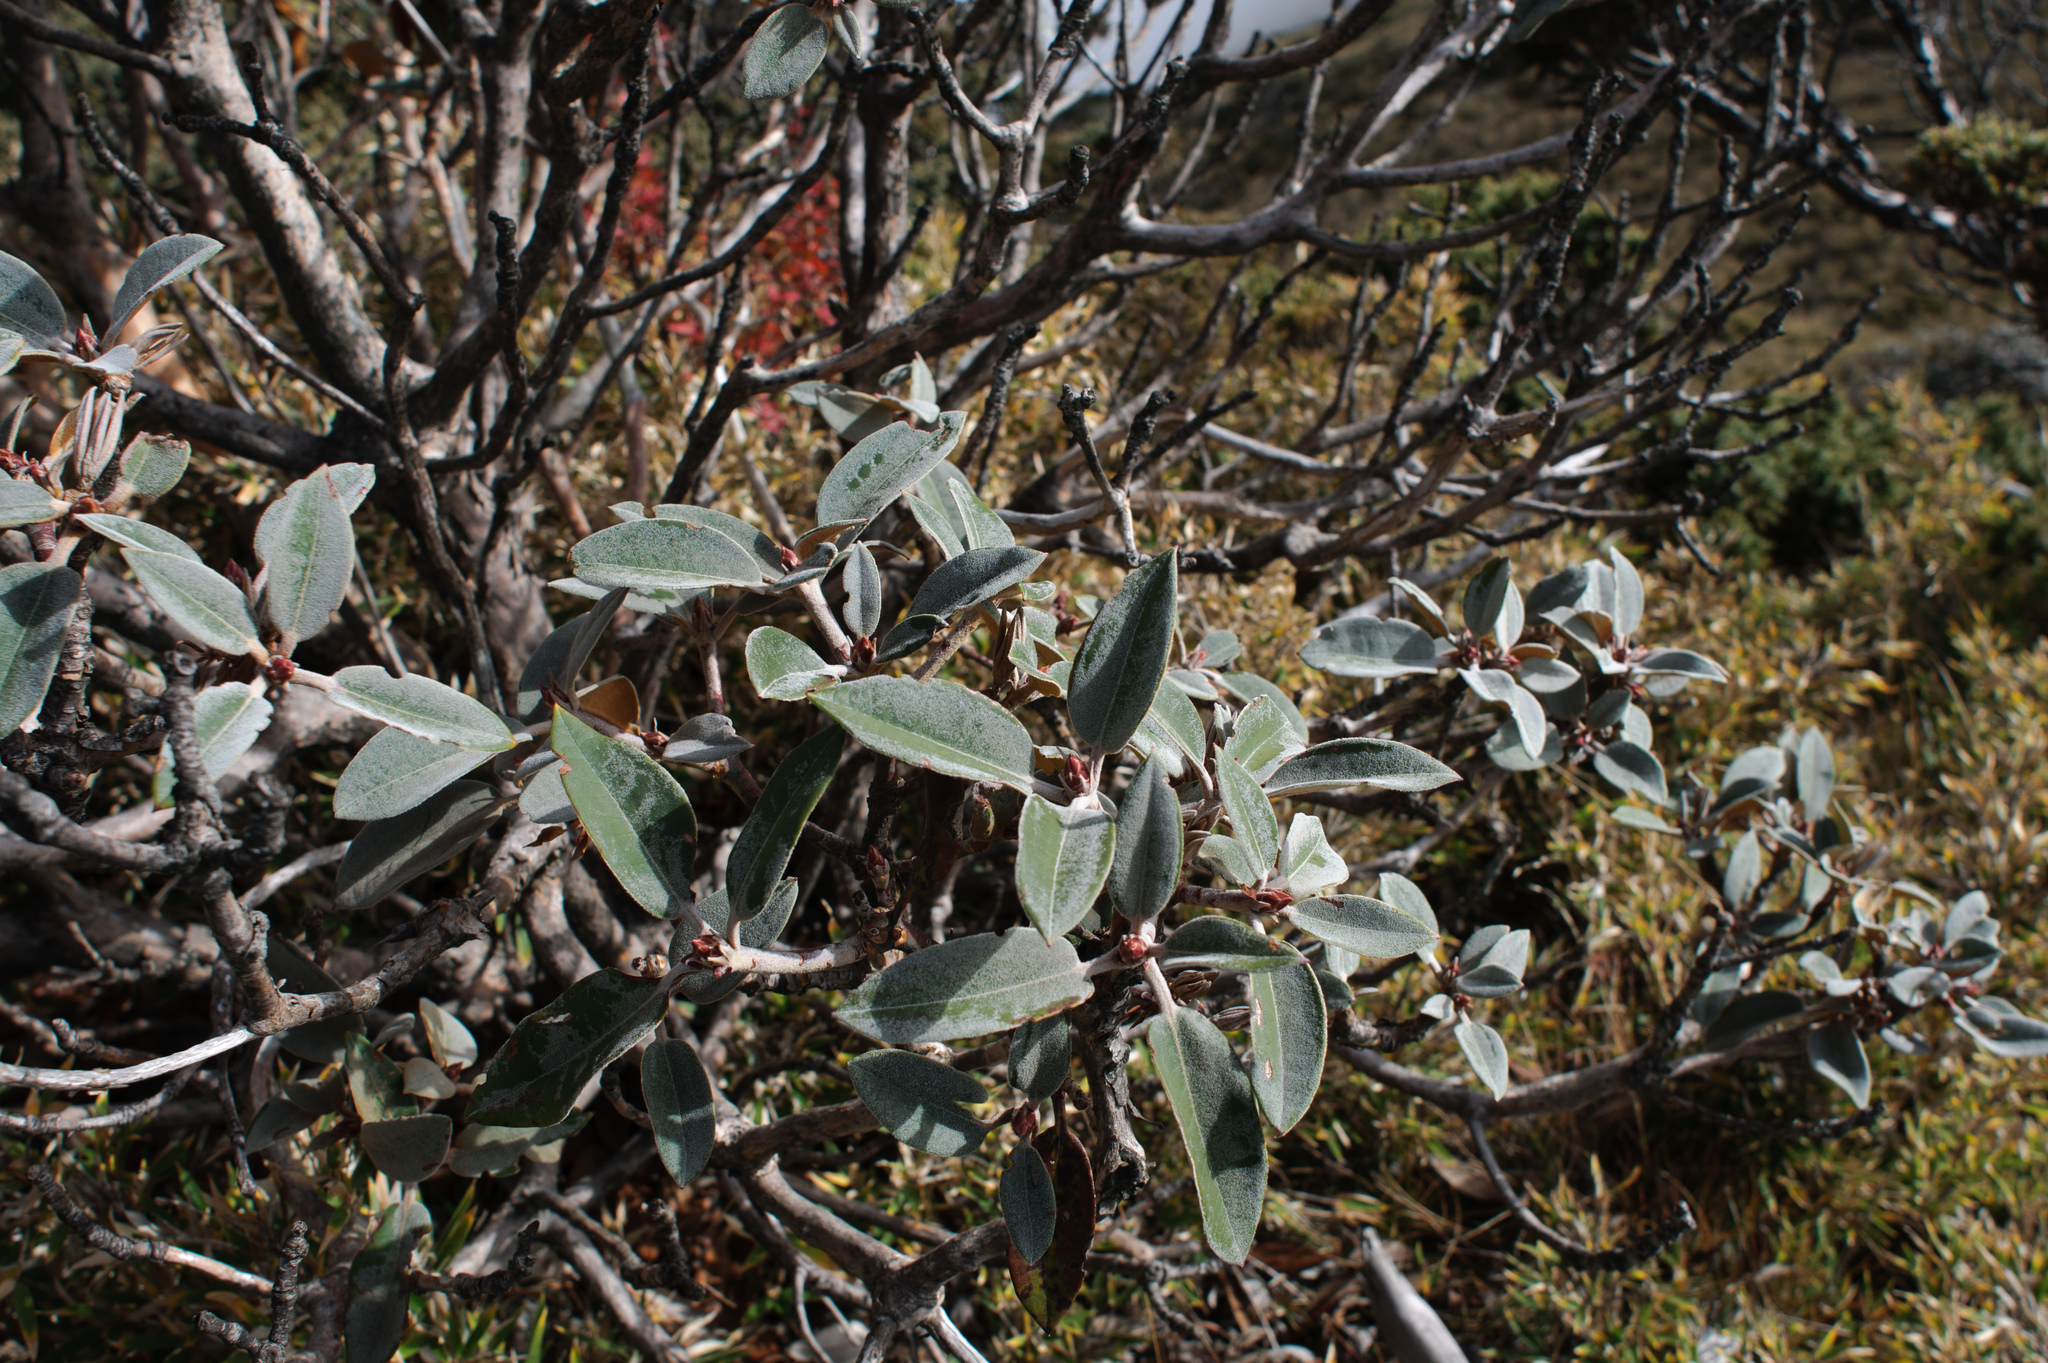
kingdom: Plantae
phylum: Tracheophyta
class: Magnoliopsida
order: Ericales
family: Ericaceae
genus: Rhododendron
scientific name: Rhododendron hyperythrum
